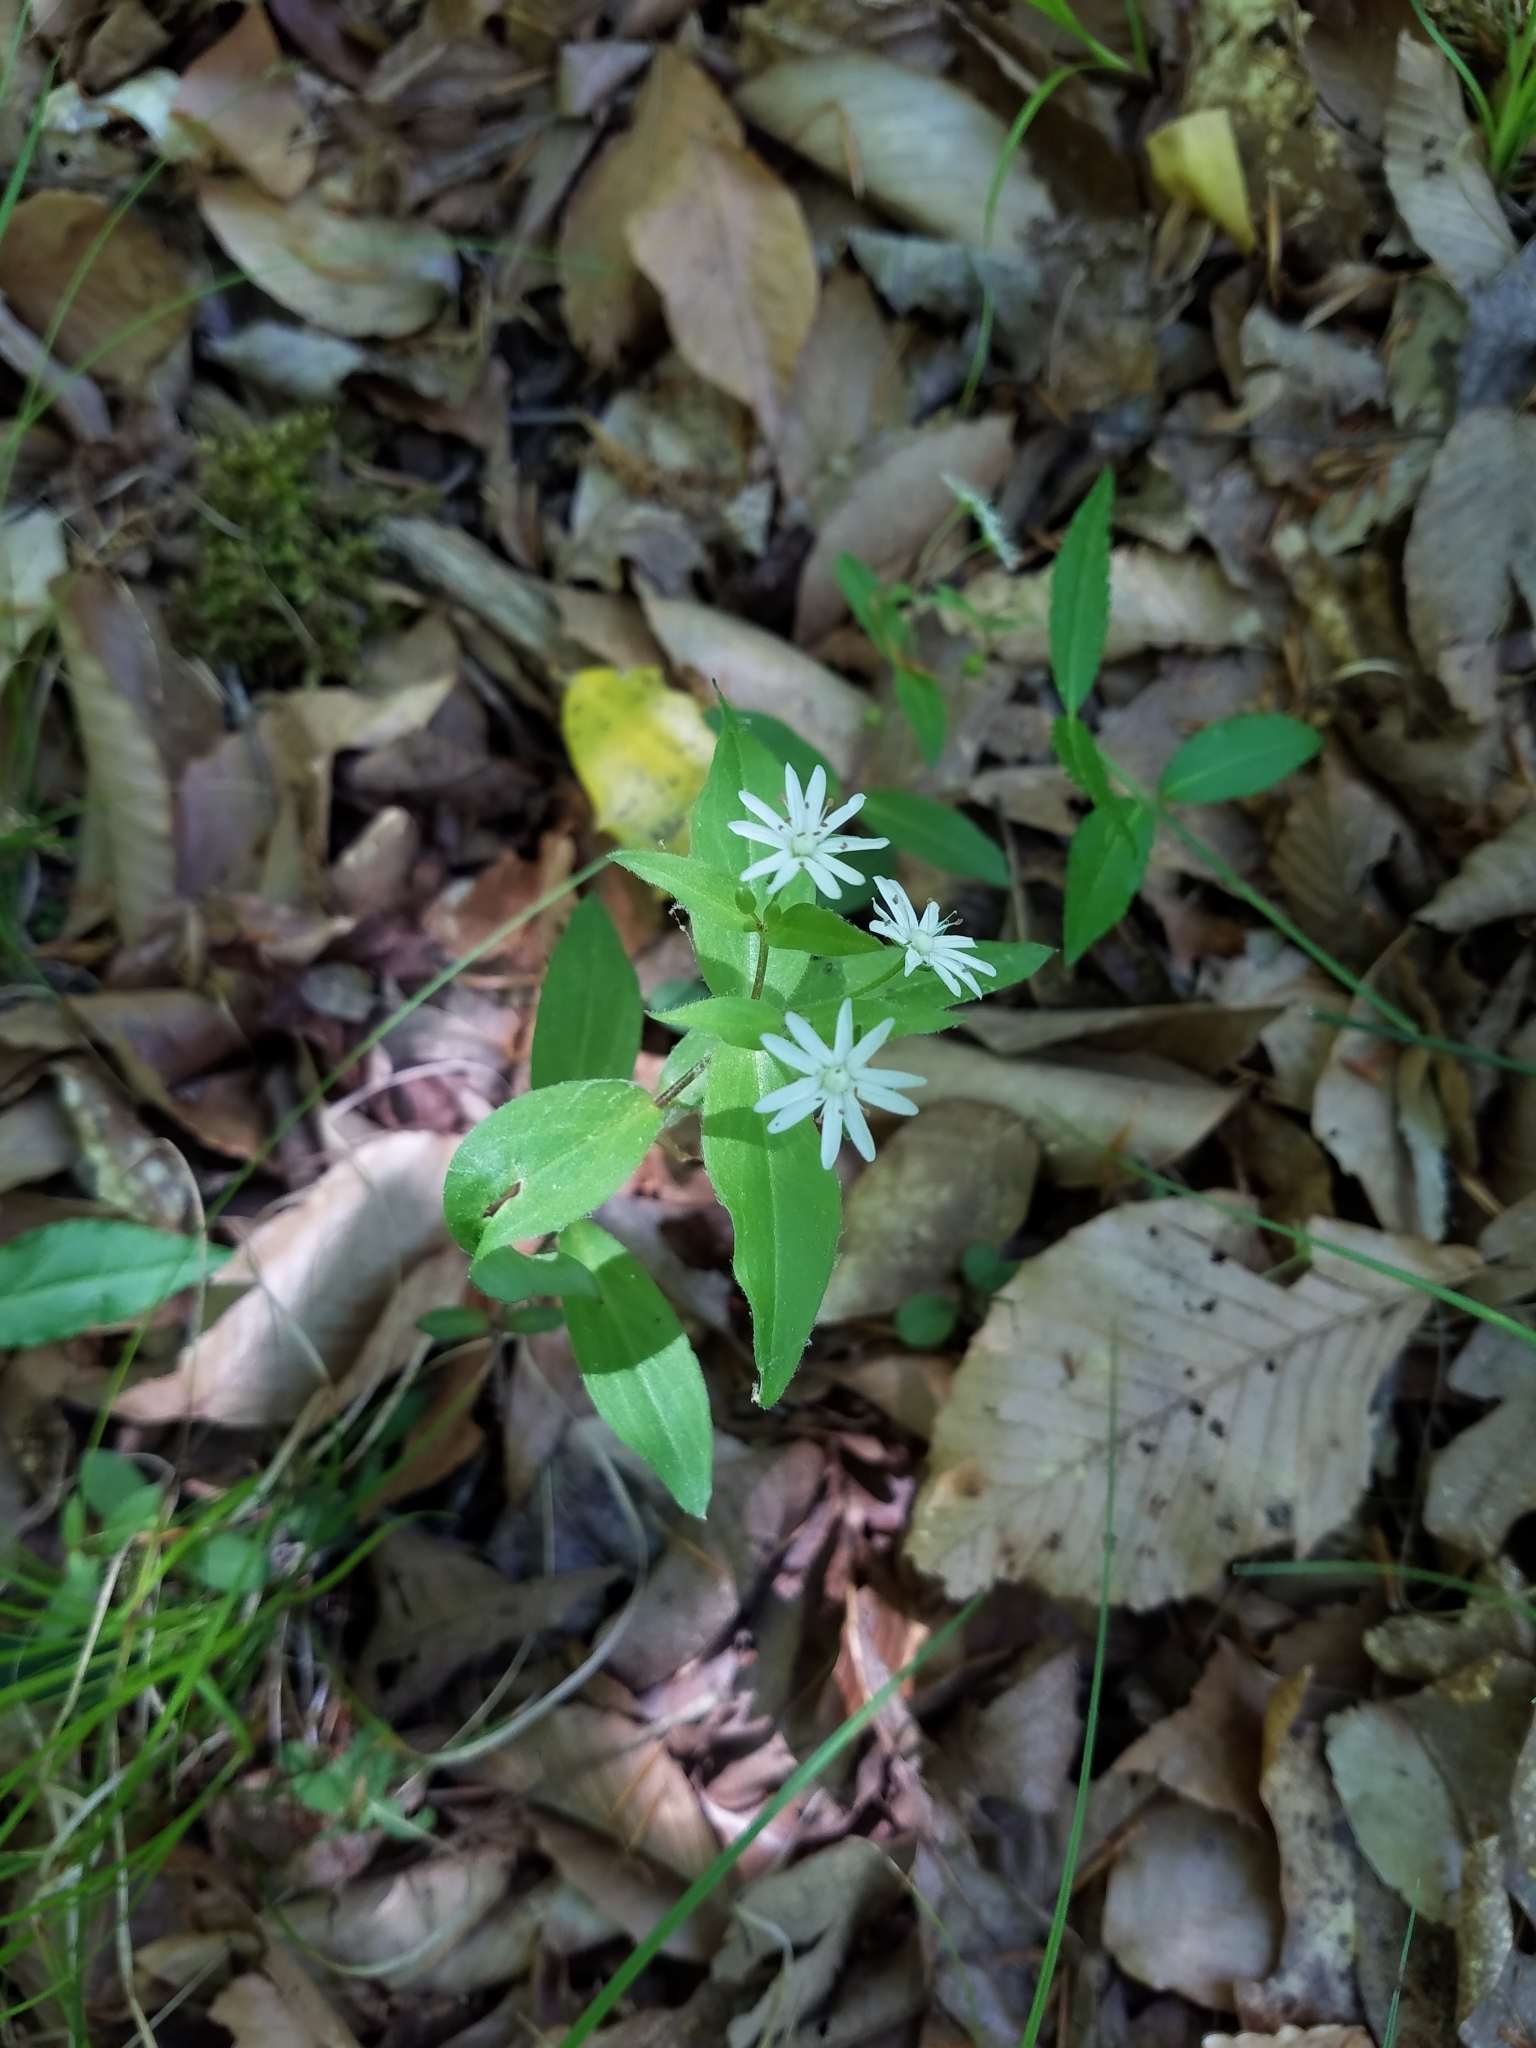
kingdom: Plantae
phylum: Tracheophyta
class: Magnoliopsida
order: Caryophyllales
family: Caryophyllaceae
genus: Stellaria
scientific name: Stellaria pubera
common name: Star chickweed
